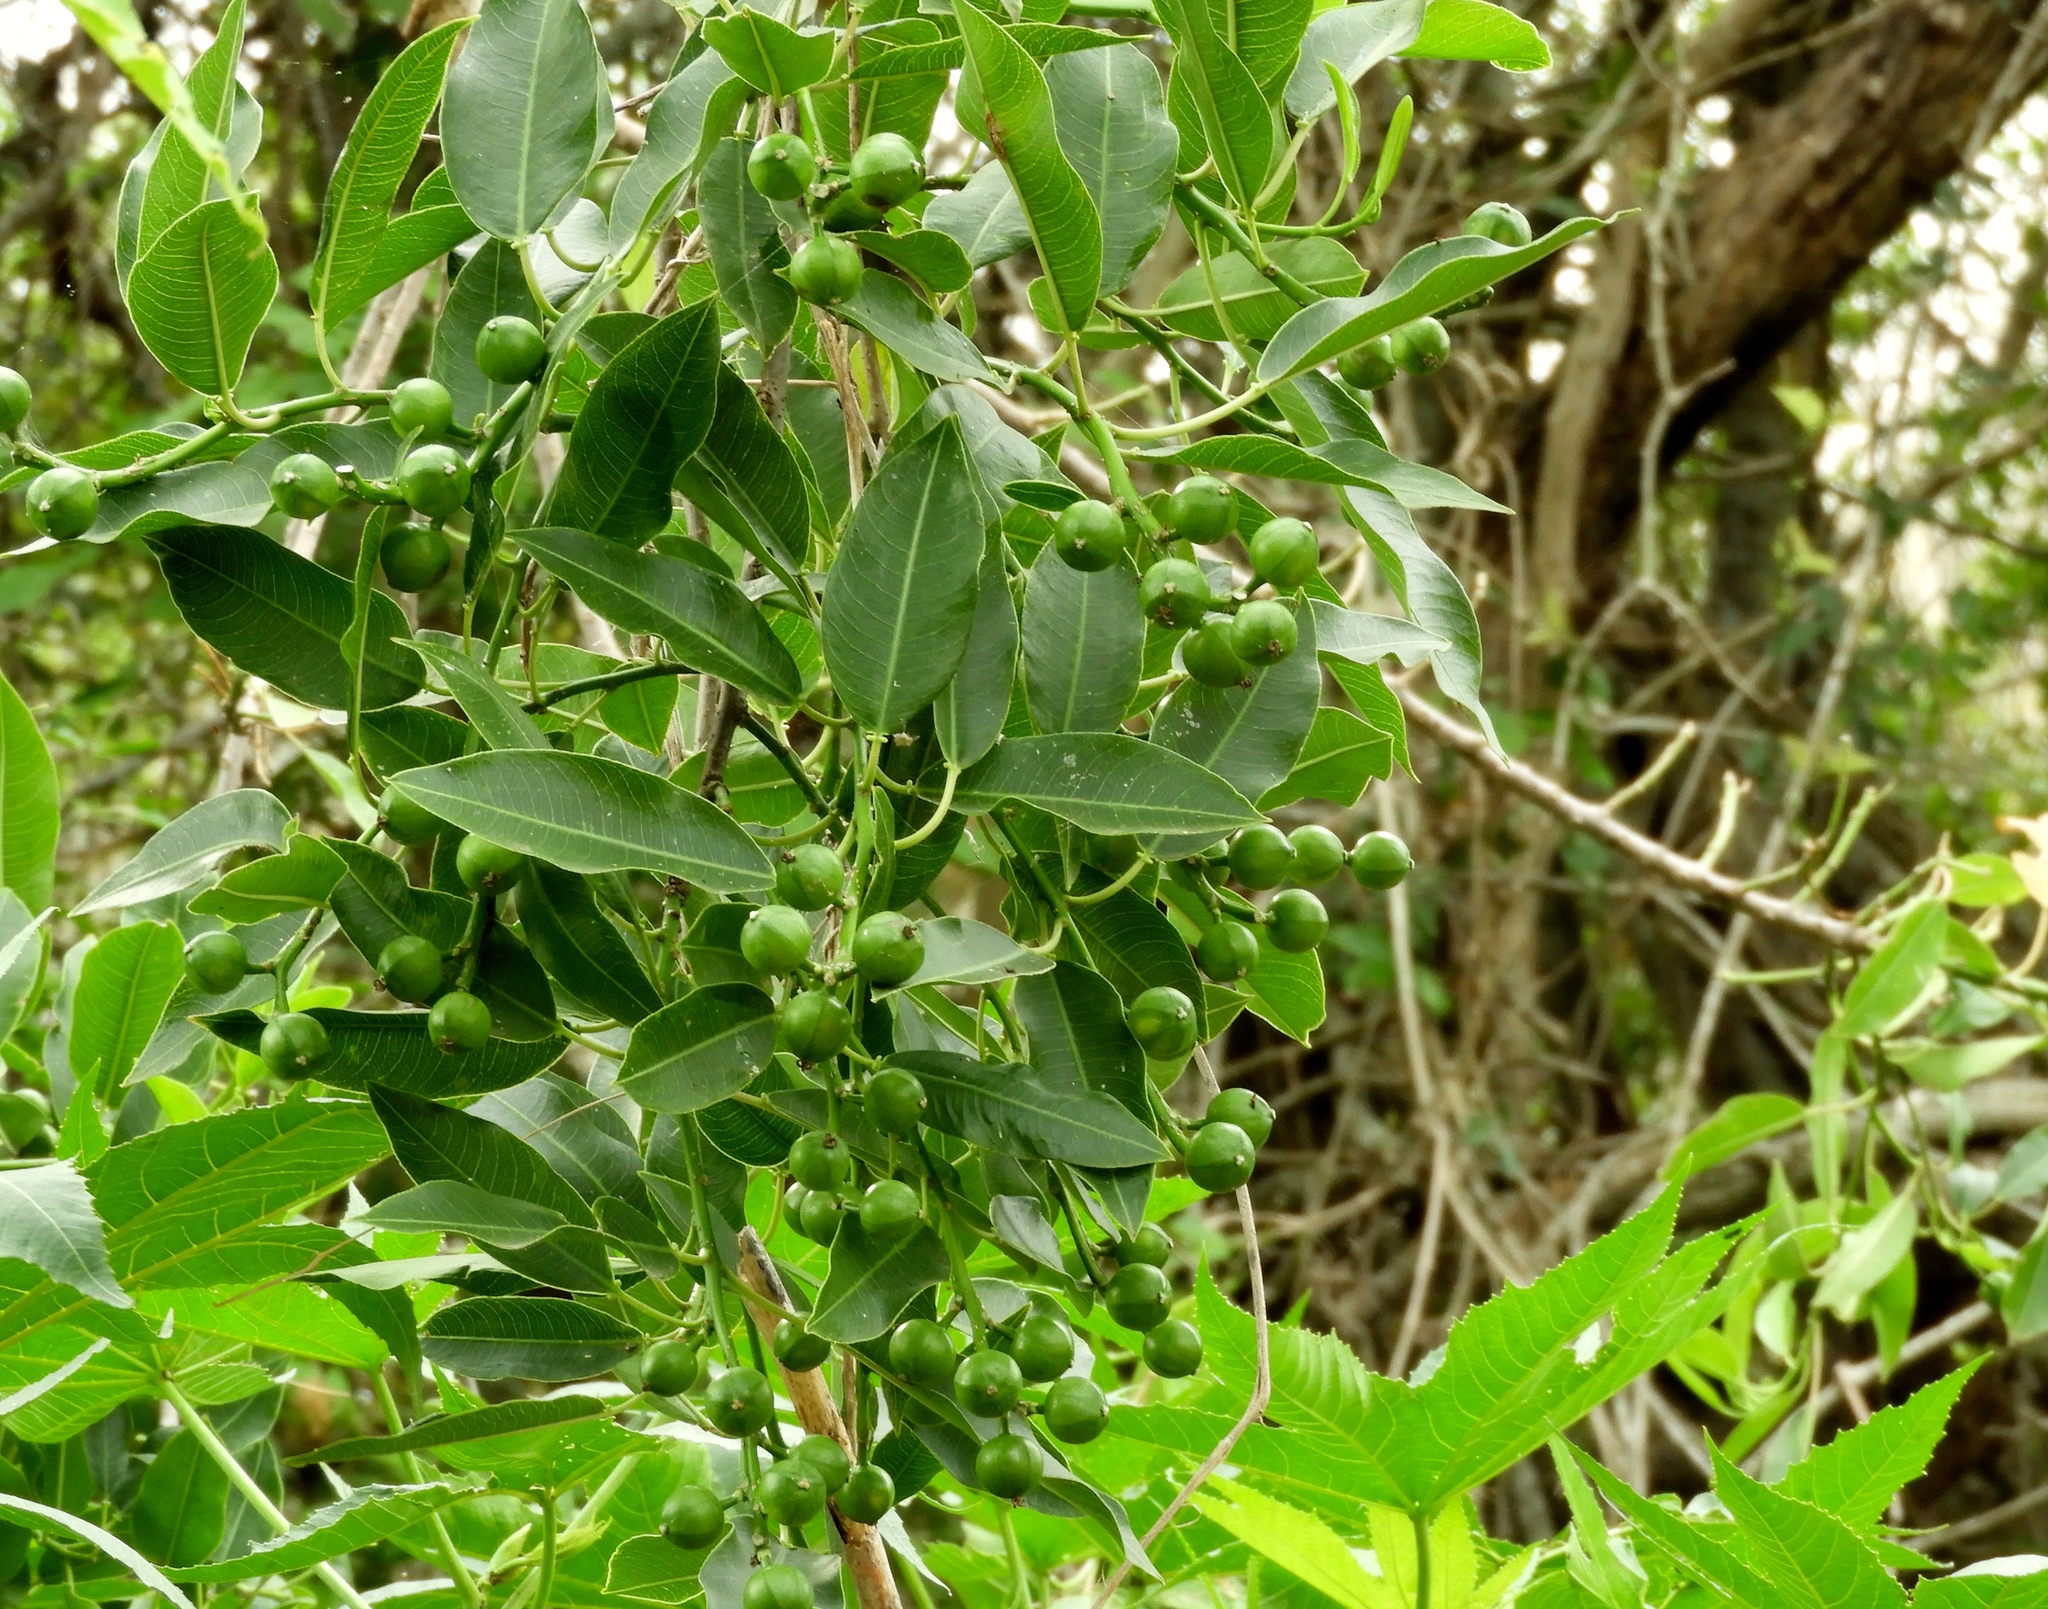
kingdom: Plantae
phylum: Tracheophyta
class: Magnoliopsida
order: Malpighiales
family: Euphorbiaceae
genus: Sapium
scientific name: Sapium lateriflorum
